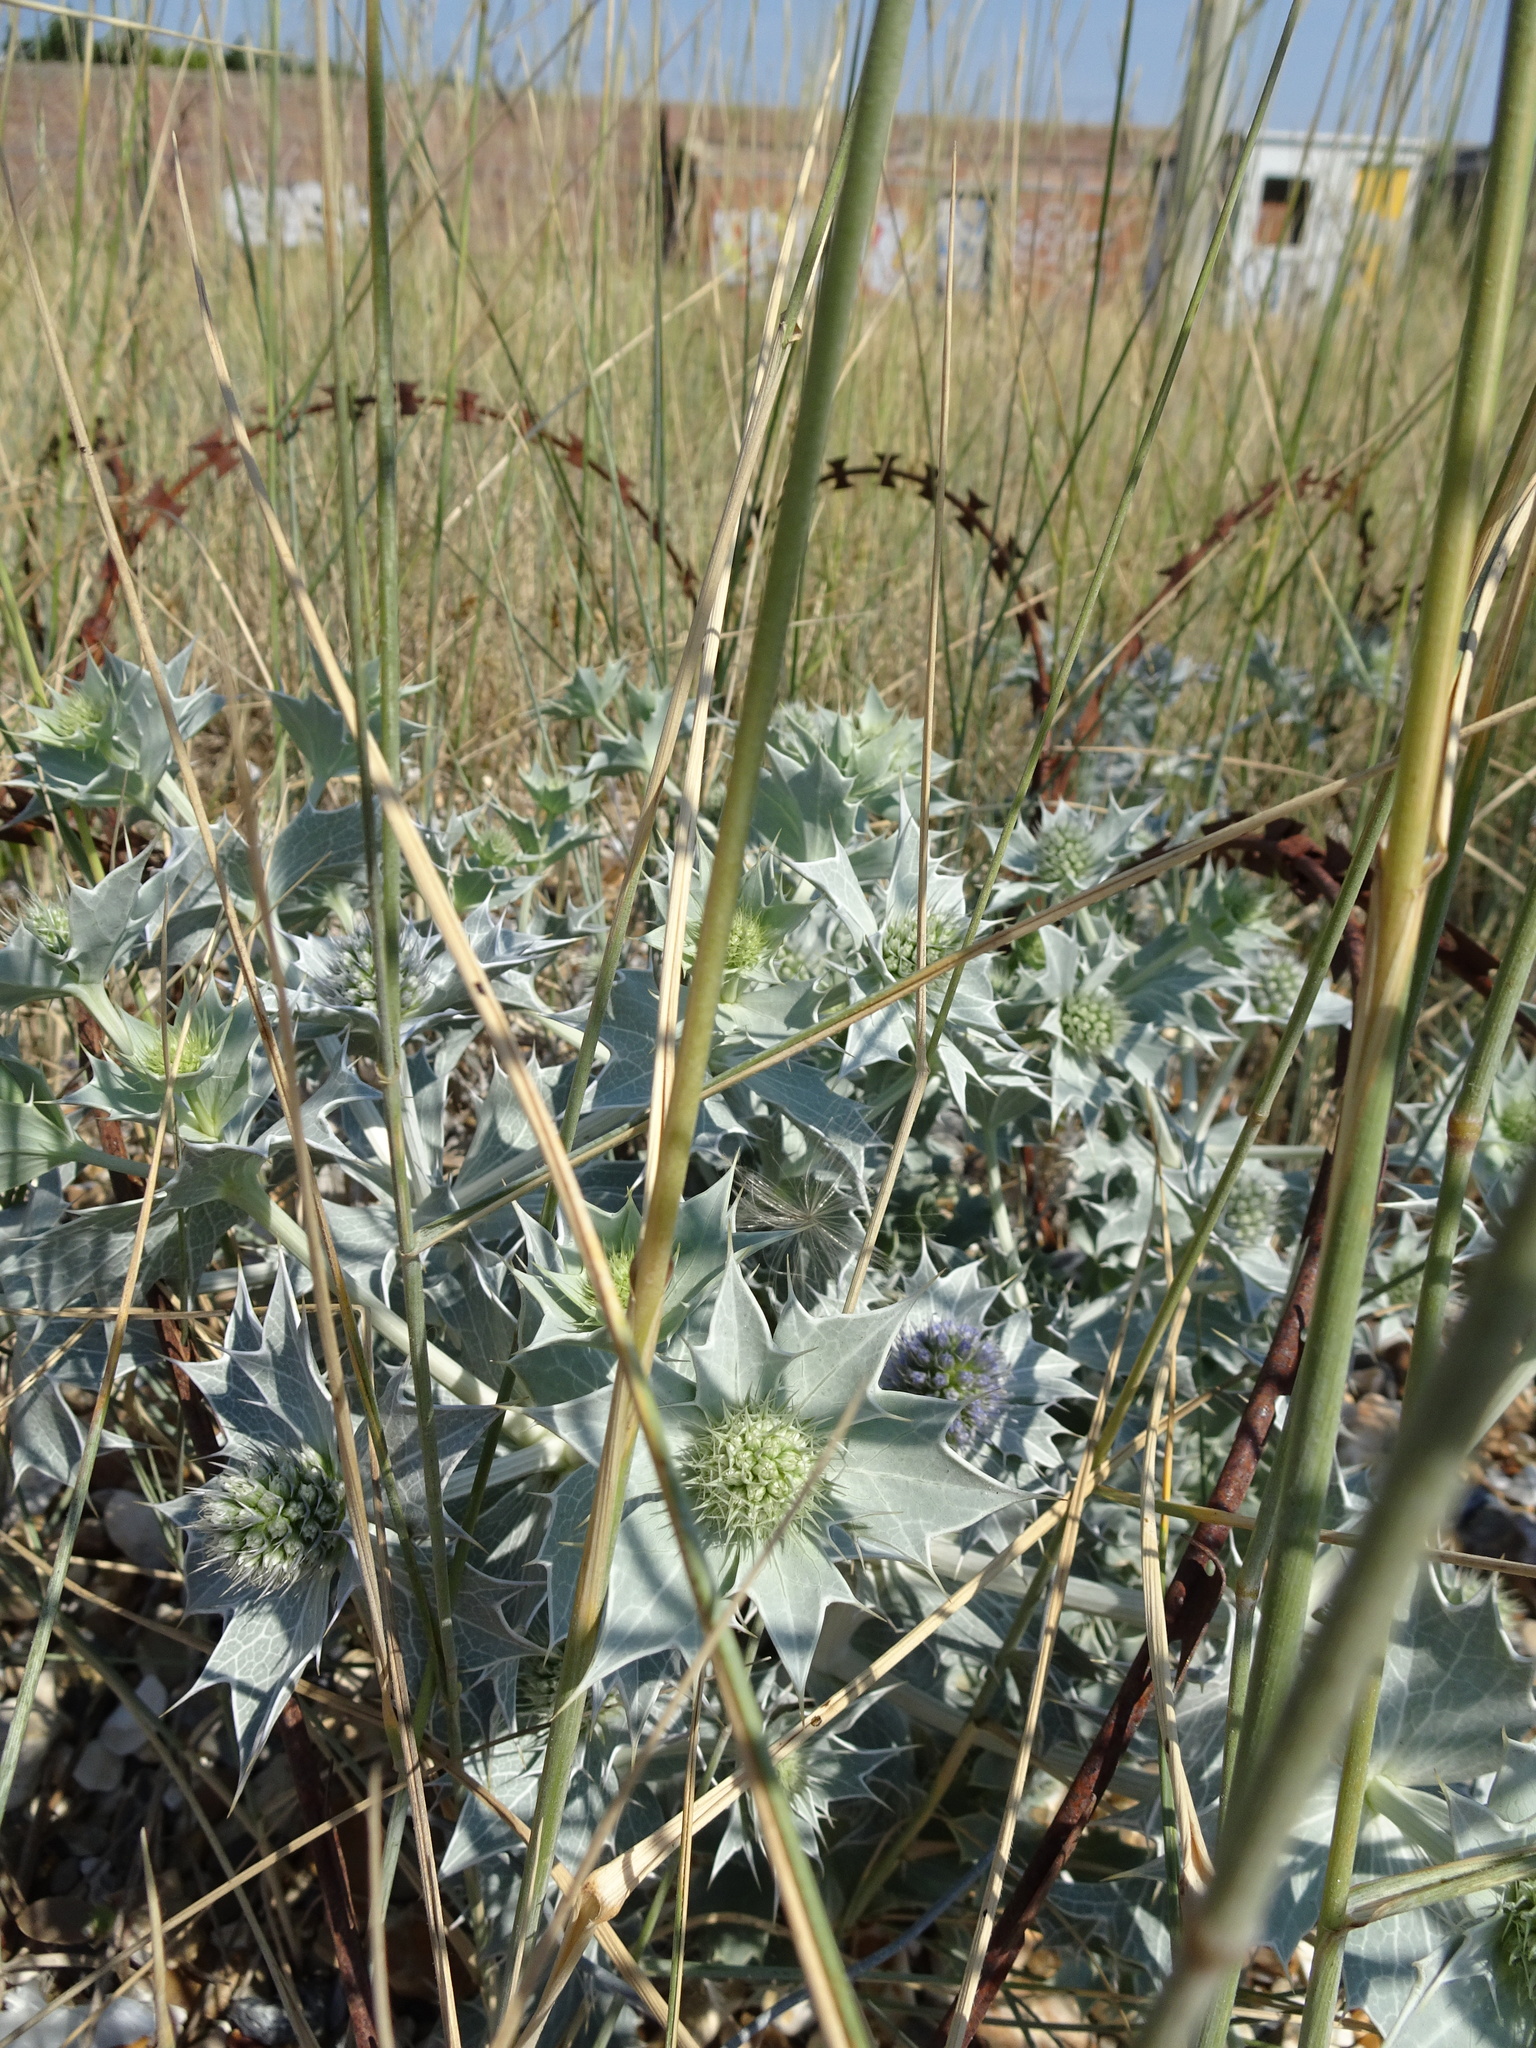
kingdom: Plantae
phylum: Tracheophyta
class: Magnoliopsida
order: Apiales
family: Apiaceae
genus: Eryngium
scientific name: Eryngium maritimum
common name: Sea-holly
